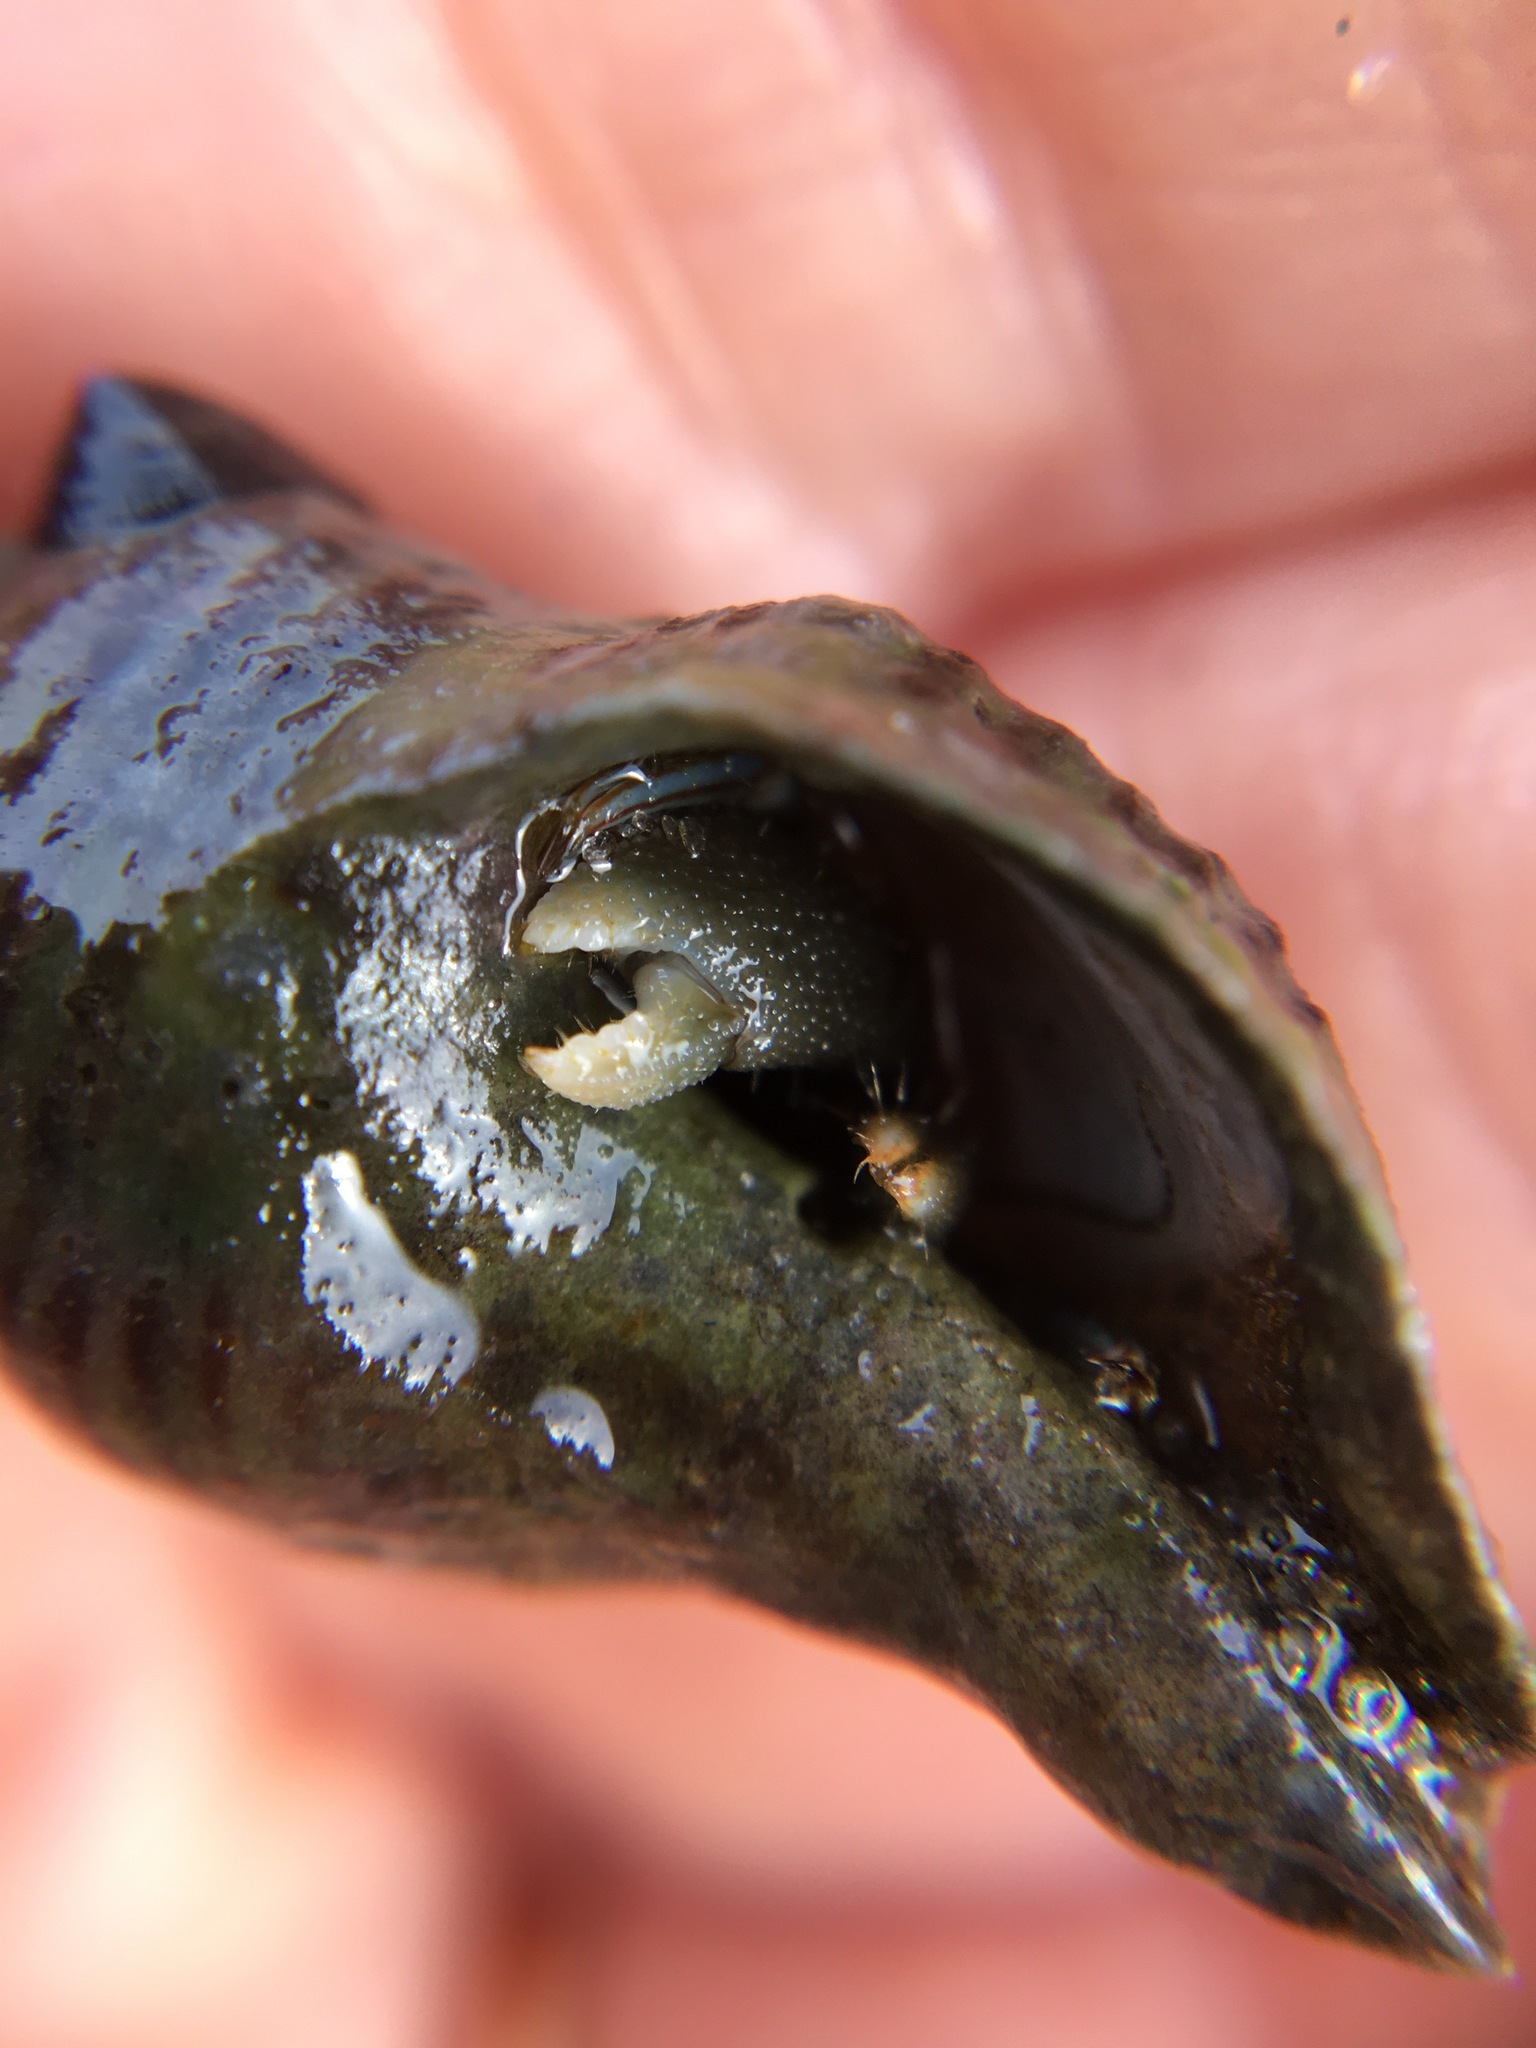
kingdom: Animalia
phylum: Mollusca
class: Gastropoda
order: Neogastropoda
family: Muricidae
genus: Acanthinucella
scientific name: Acanthinucella spirata
